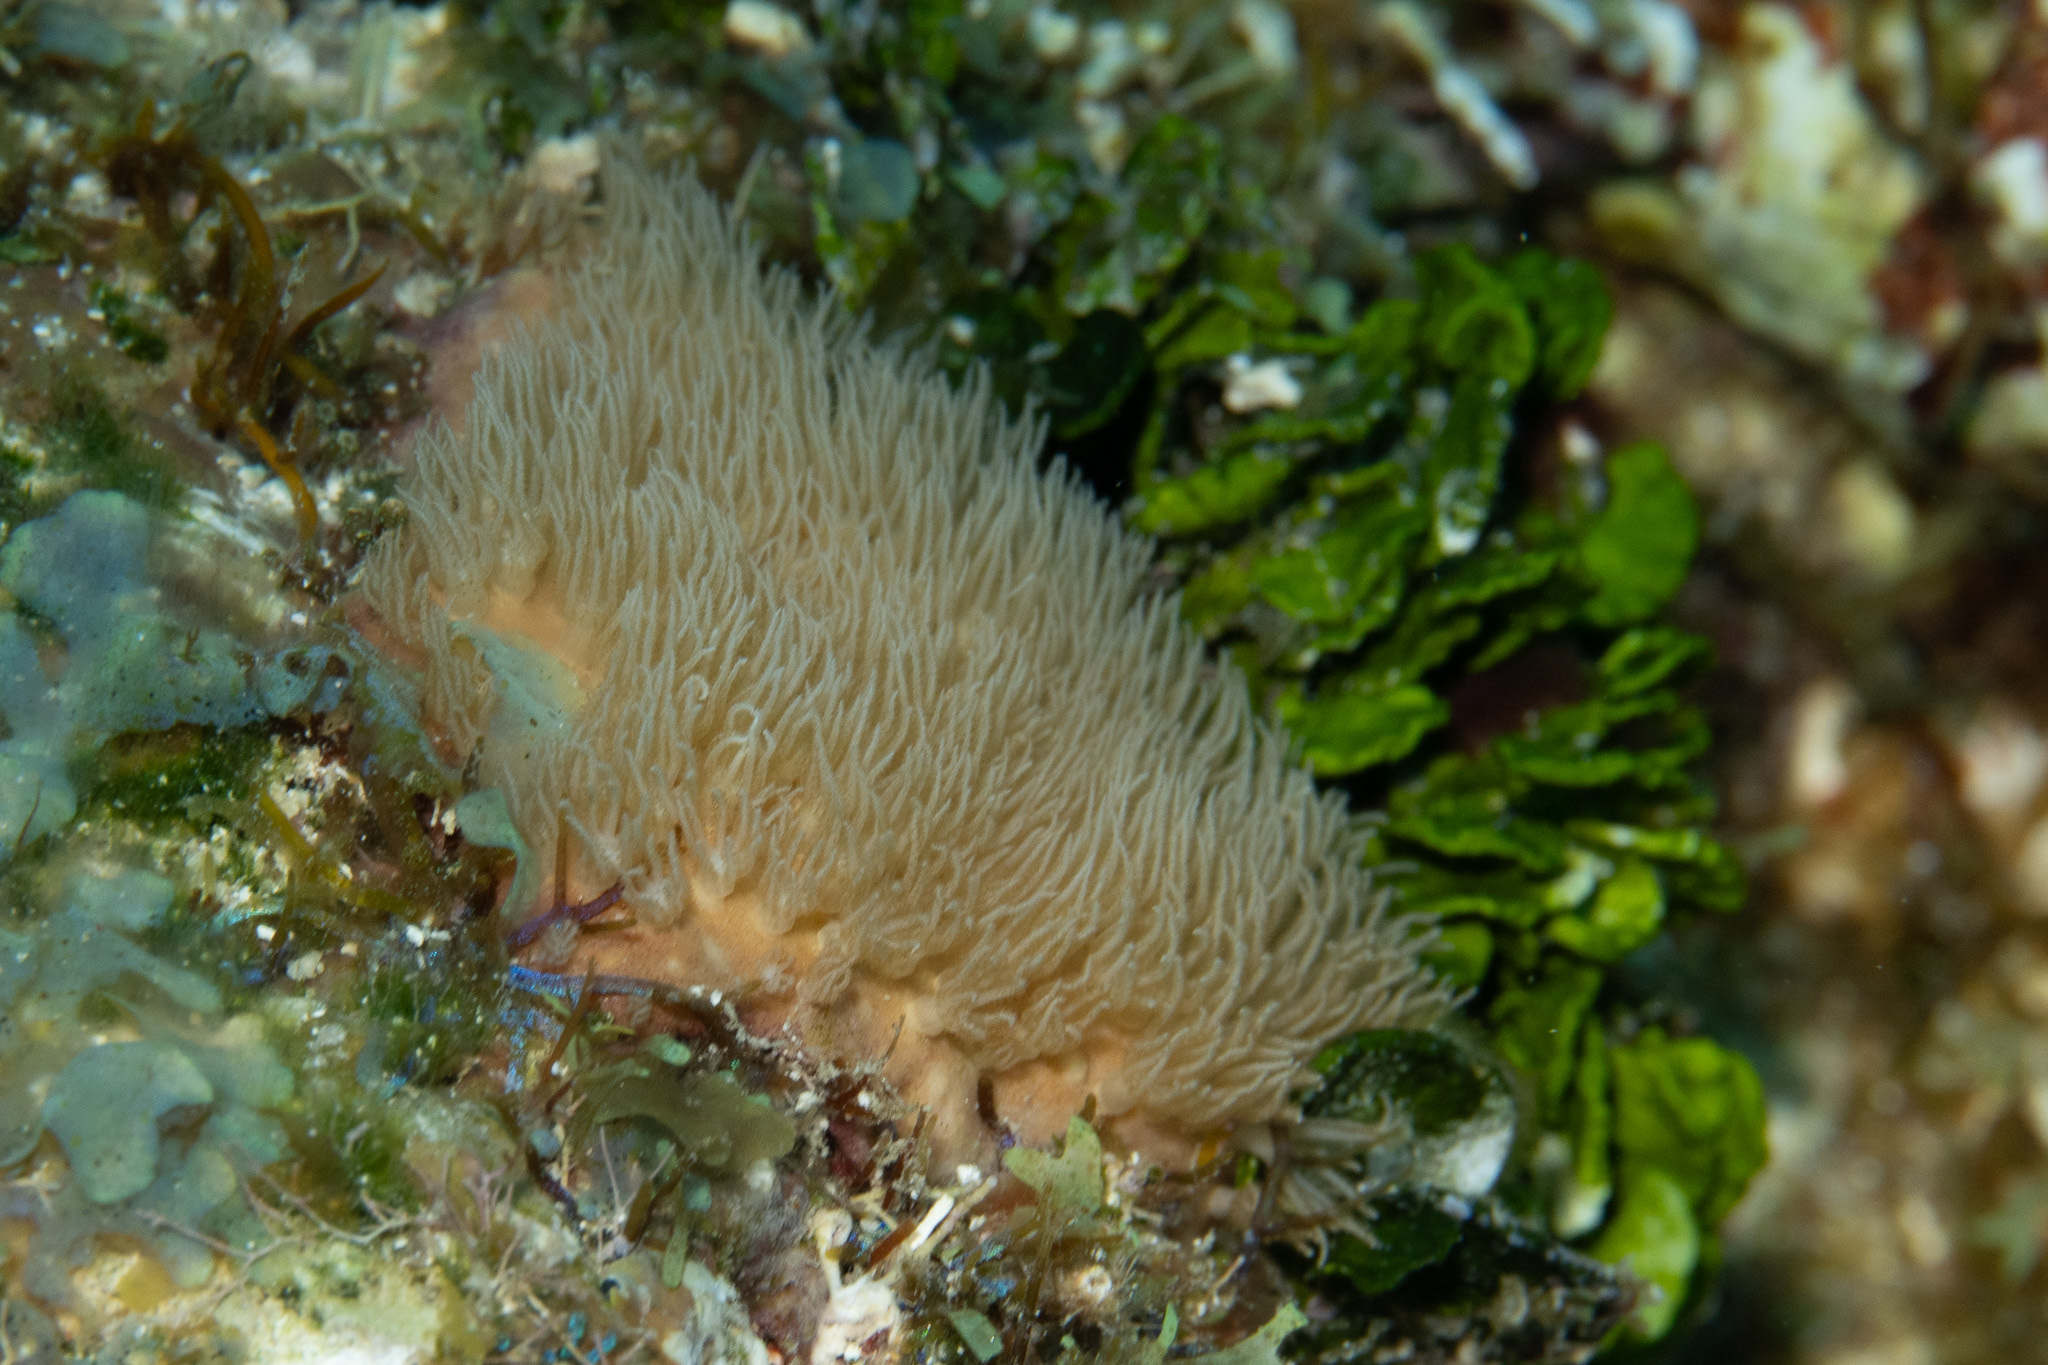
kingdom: Animalia
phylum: Cnidaria
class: Anthozoa
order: Scleralcyonacea
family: Erythropodiidae
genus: Erythropodium
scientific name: Erythropodium caribaeorum
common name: Encrusting gorgonian
